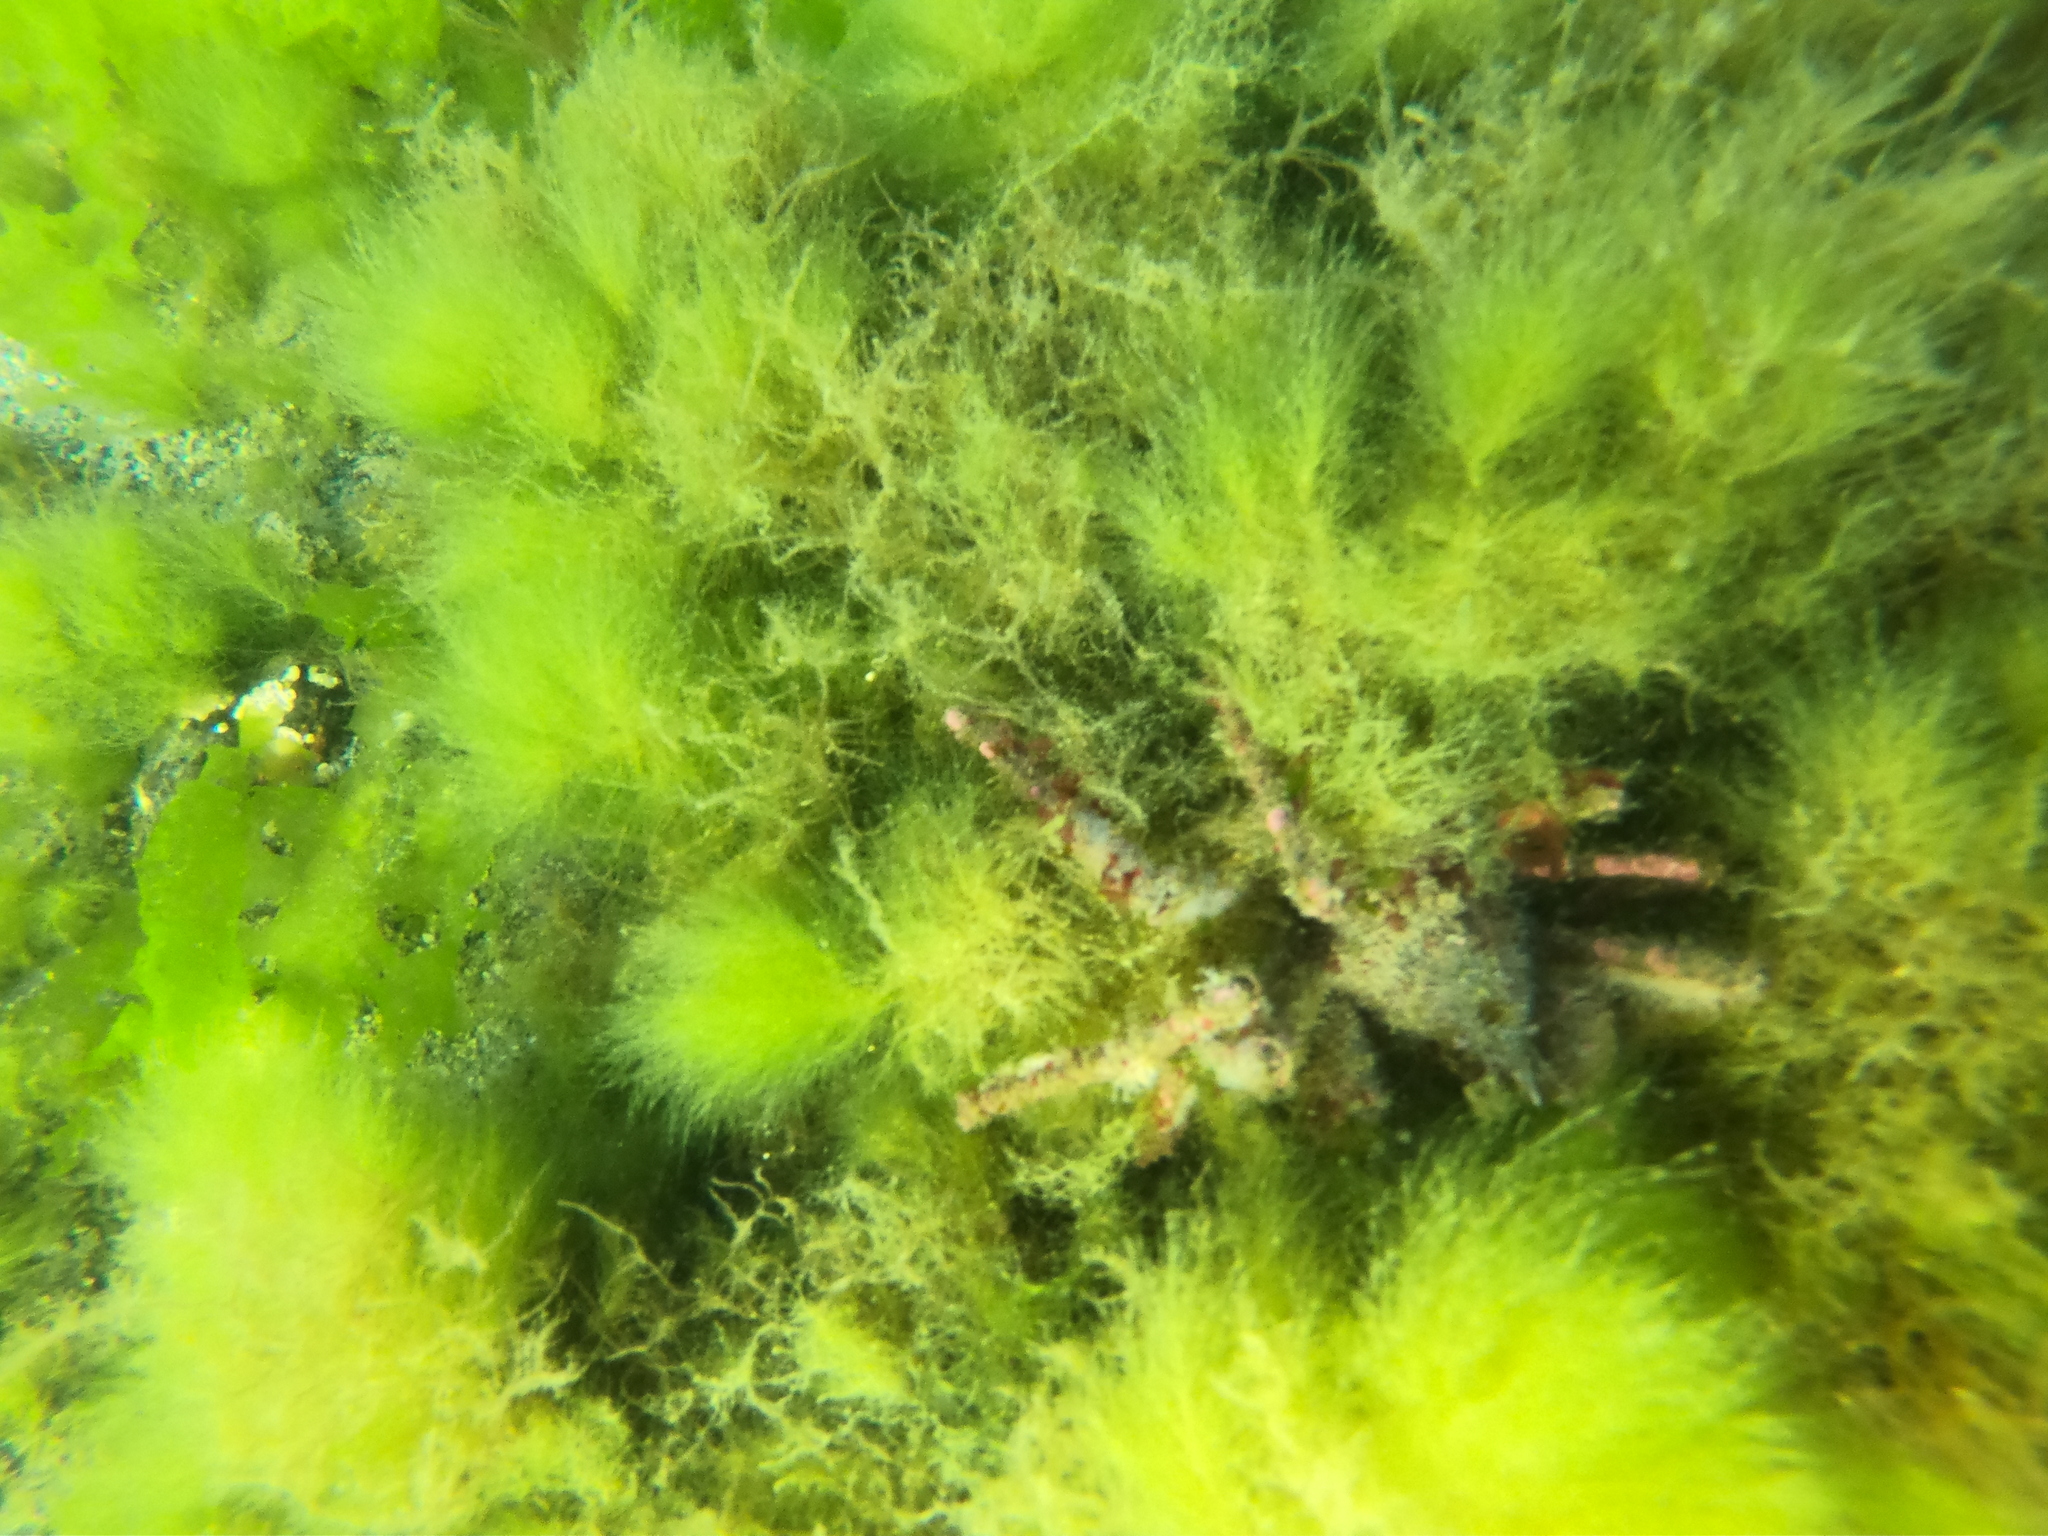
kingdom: Animalia
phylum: Arthropoda
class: Malacostraca
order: Decapoda
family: Inachidae
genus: Eurypodius
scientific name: Eurypodius longirostris
